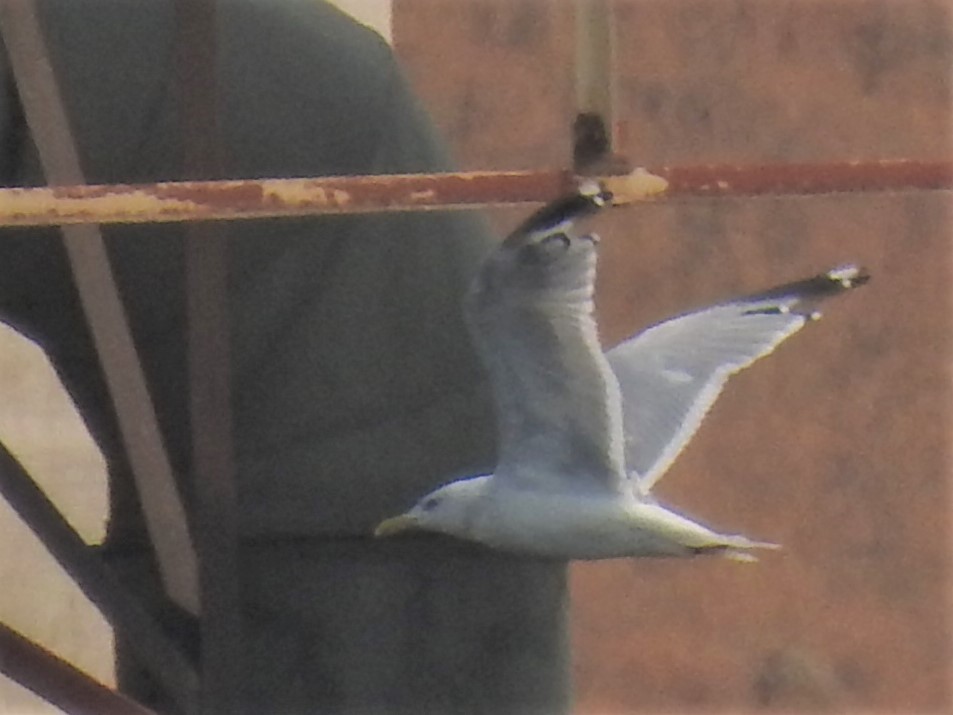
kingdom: Animalia
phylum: Chordata
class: Aves
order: Charadriiformes
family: Laridae
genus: Larus
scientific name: Larus argentatus
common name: Herring gull
